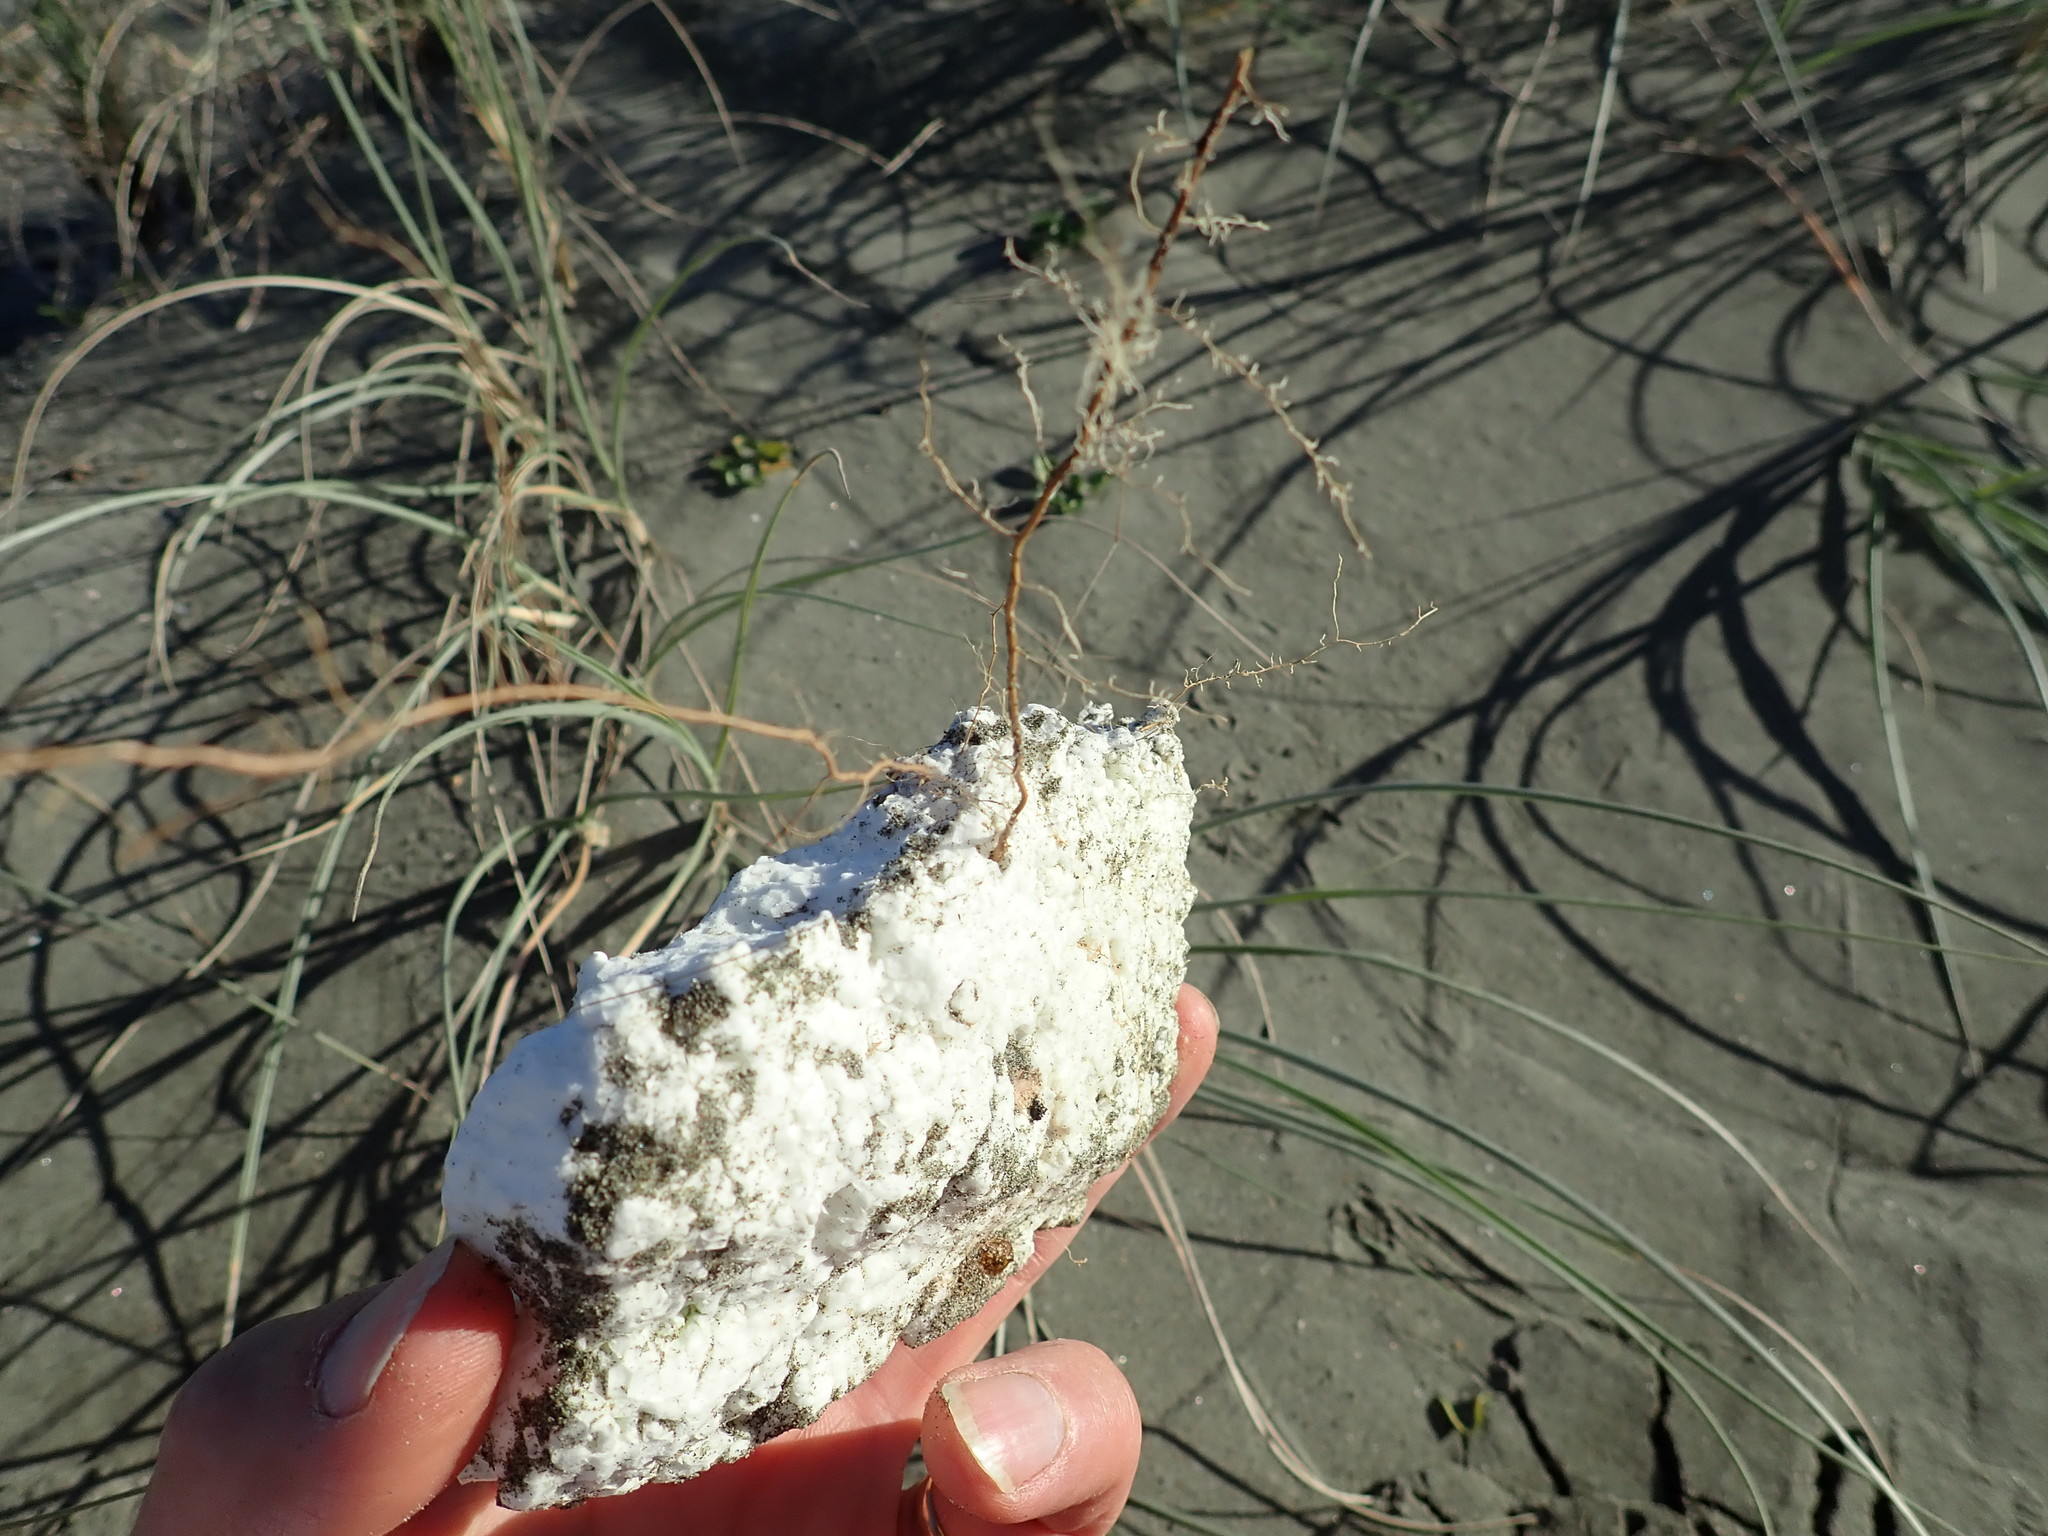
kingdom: Plantae
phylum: Tracheophyta
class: Liliopsida
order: Poales
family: Poaceae
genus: Calamagrostis
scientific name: Calamagrostis arenaria
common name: European beachgrass
